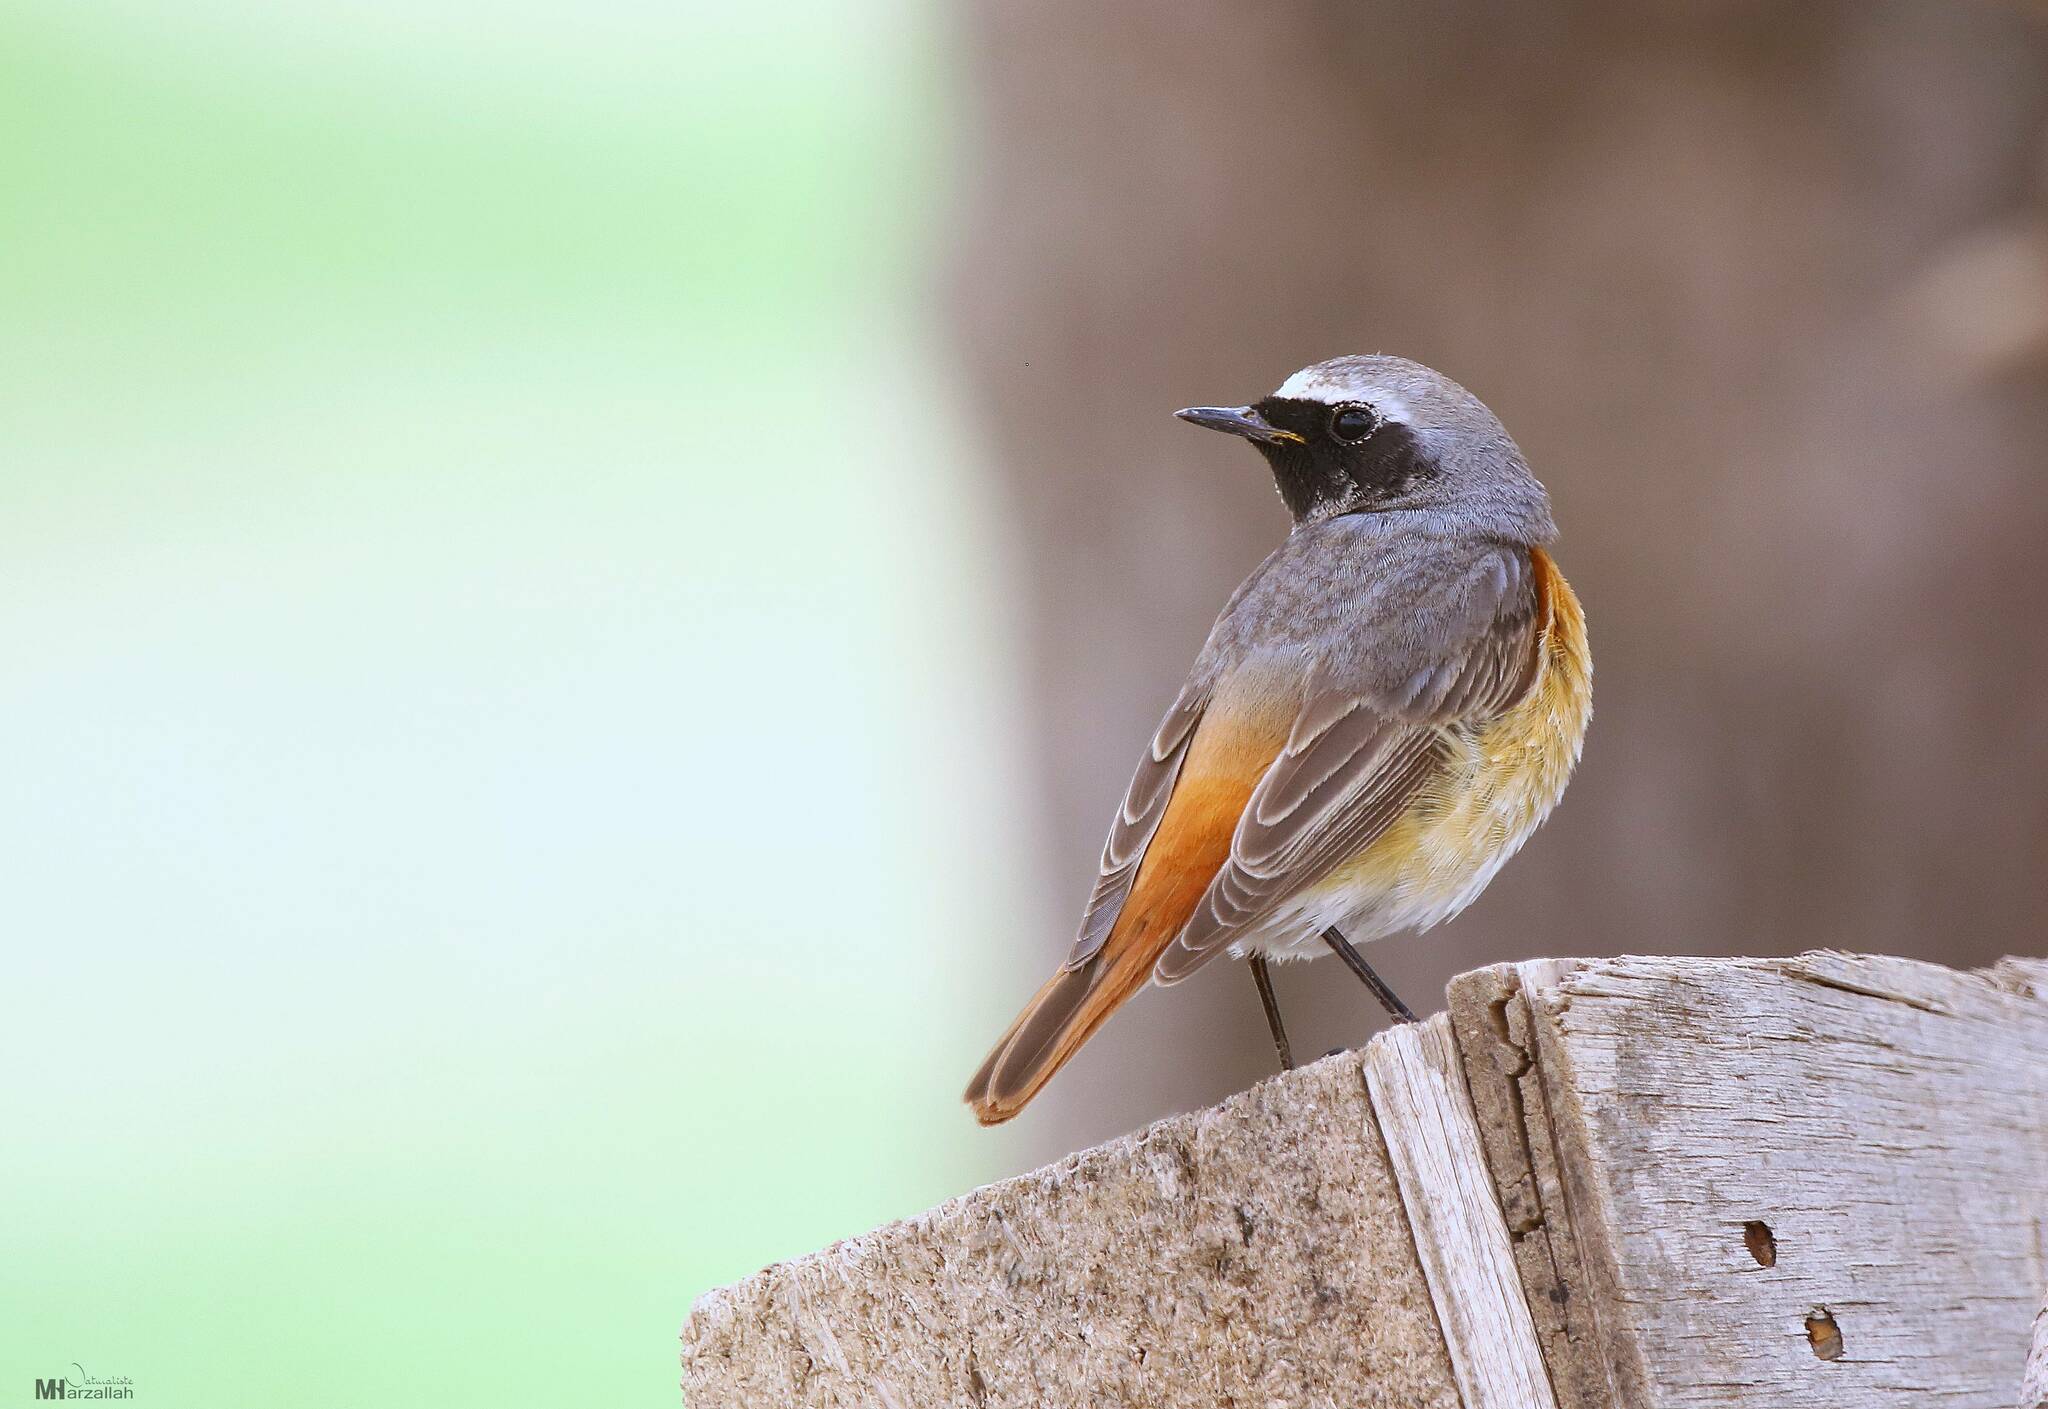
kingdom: Animalia
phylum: Chordata
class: Aves
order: Passeriformes
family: Muscicapidae
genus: Phoenicurus
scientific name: Phoenicurus phoenicurus
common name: Common redstart
